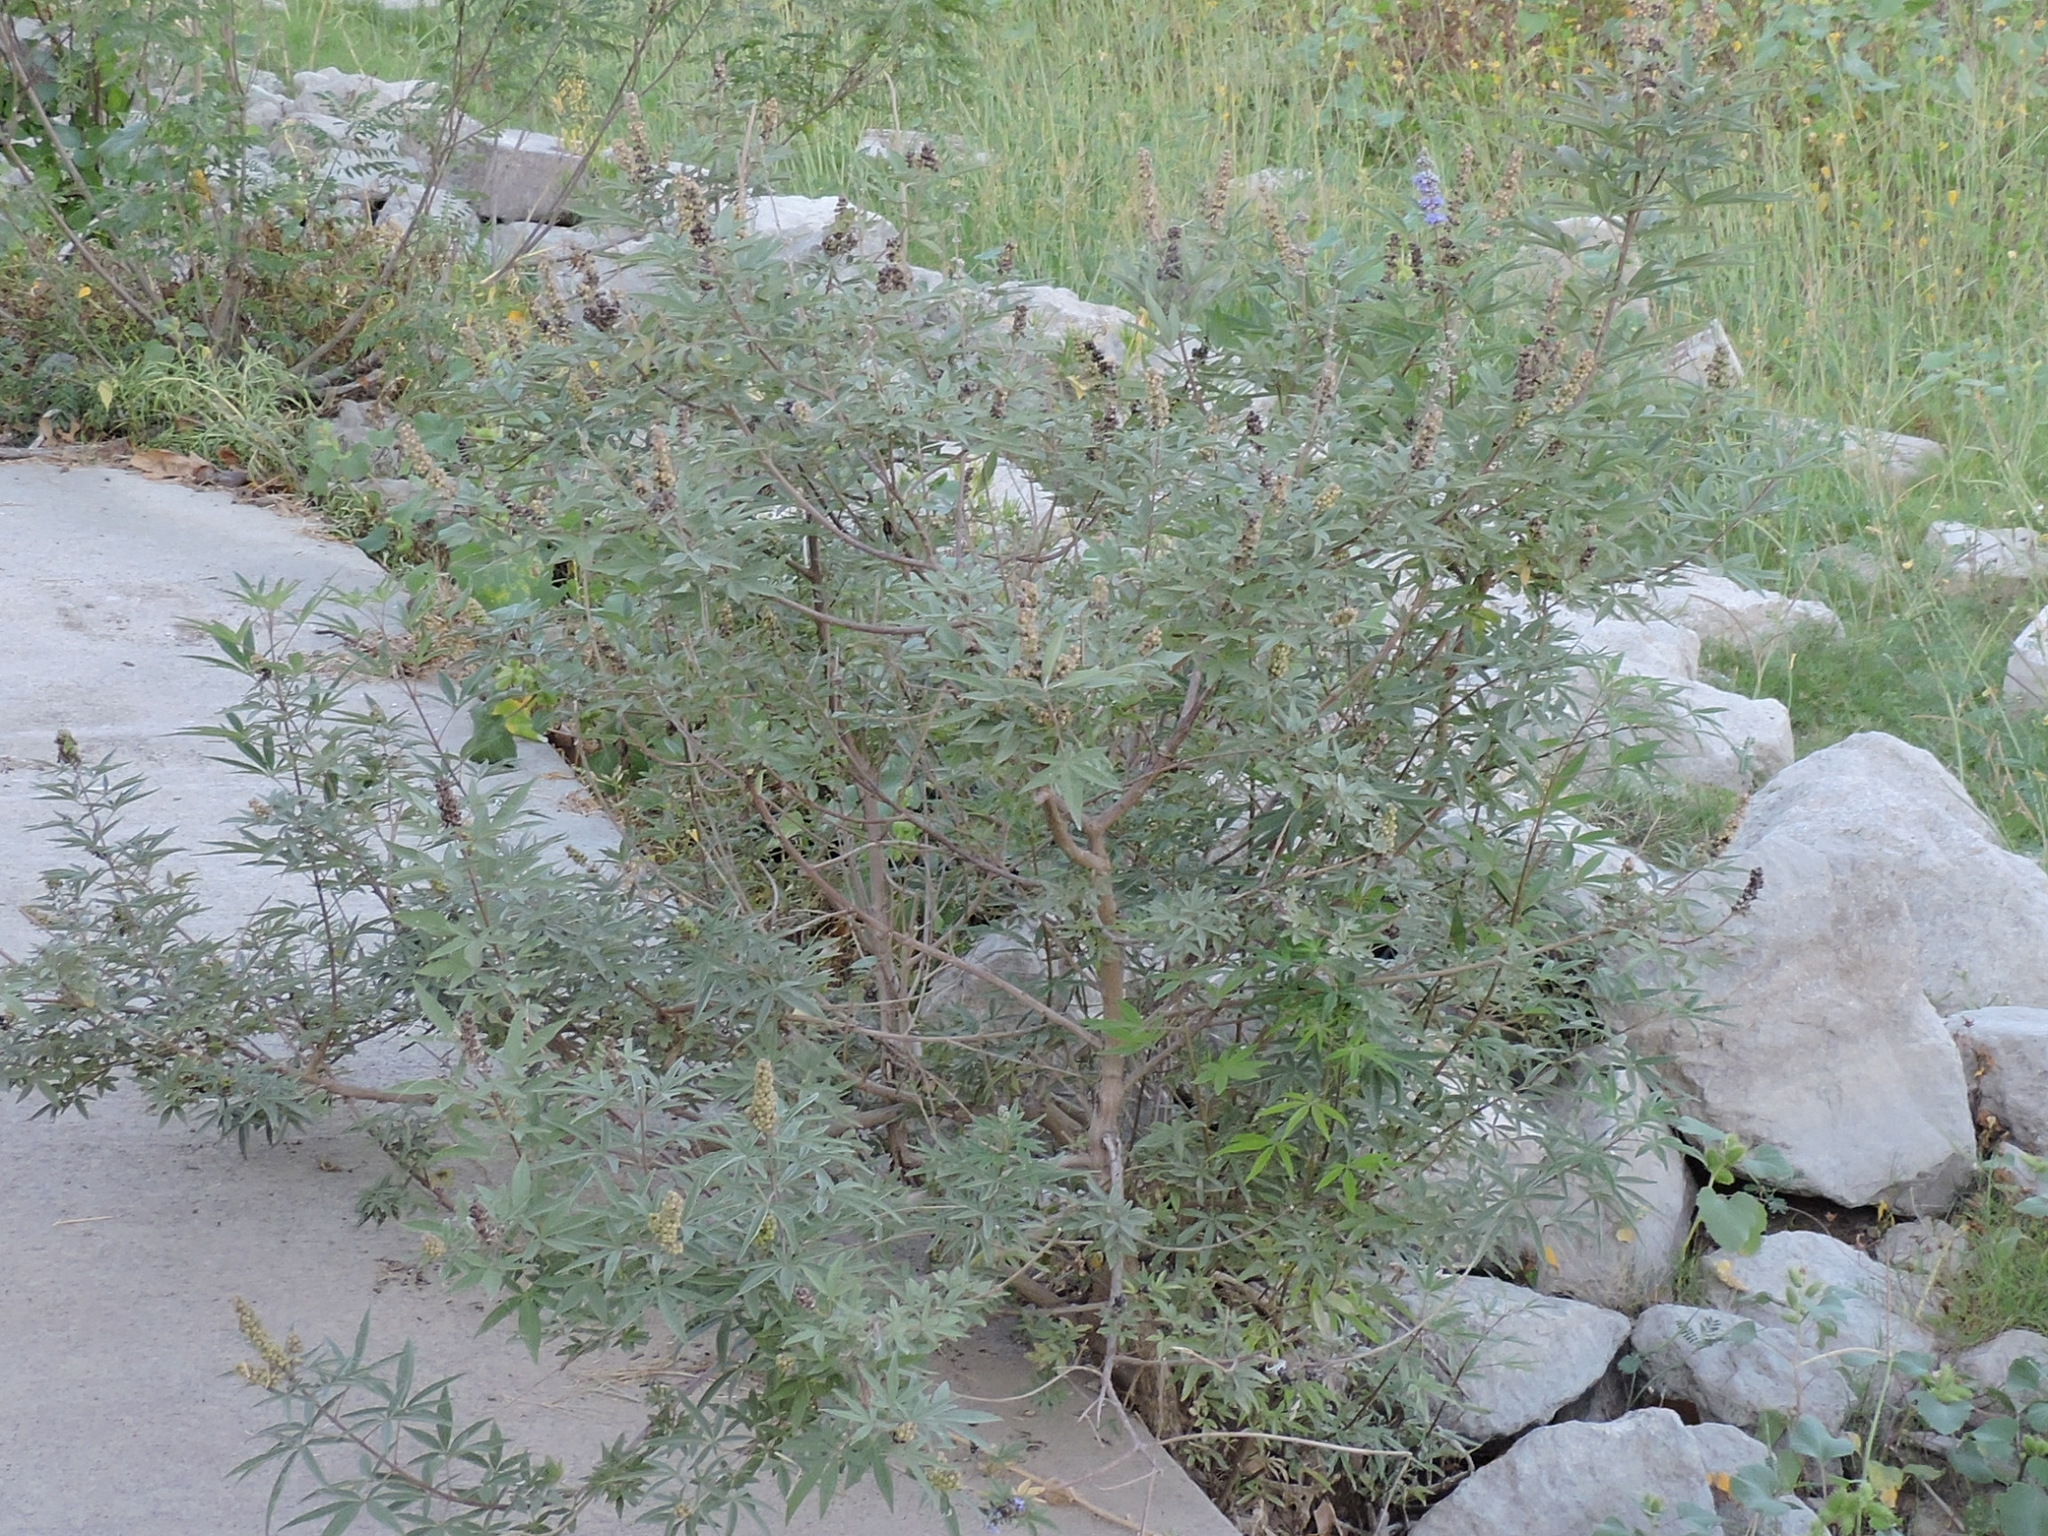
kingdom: Plantae
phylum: Tracheophyta
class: Magnoliopsida
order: Lamiales
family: Lamiaceae
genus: Vitex
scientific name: Vitex agnus-castus
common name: Chasteberry
